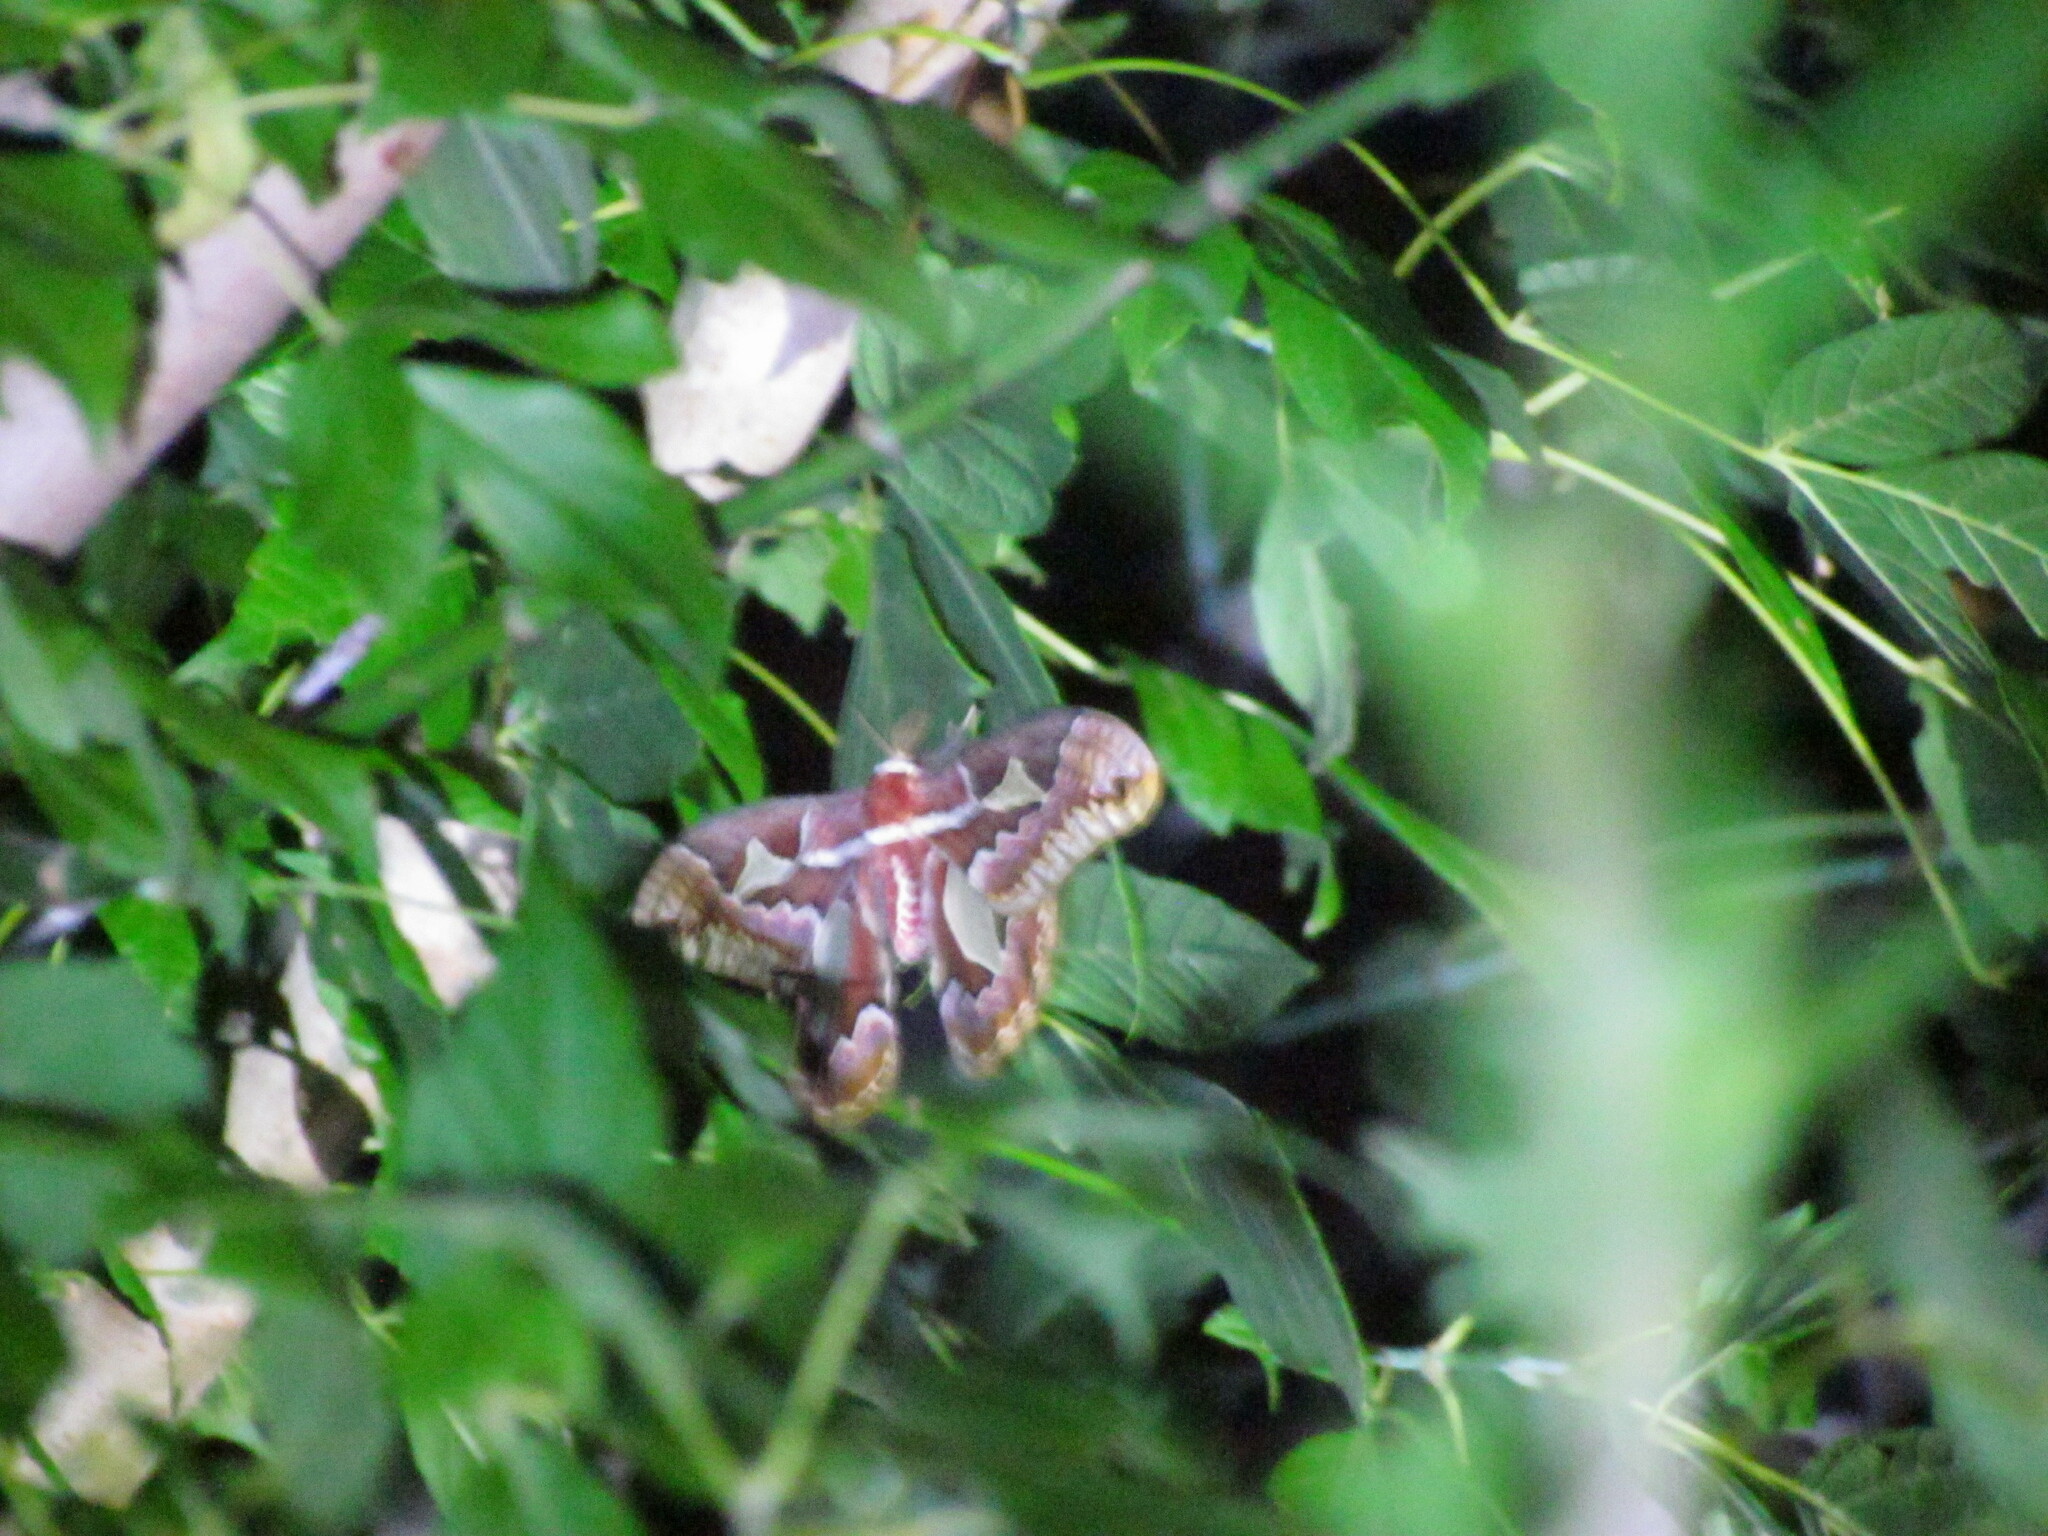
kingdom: Animalia
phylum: Arthropoda
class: Insecta
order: Lepidoptera
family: Saturniidae
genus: Rothschildia
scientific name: Rothschildia jacobaeae
